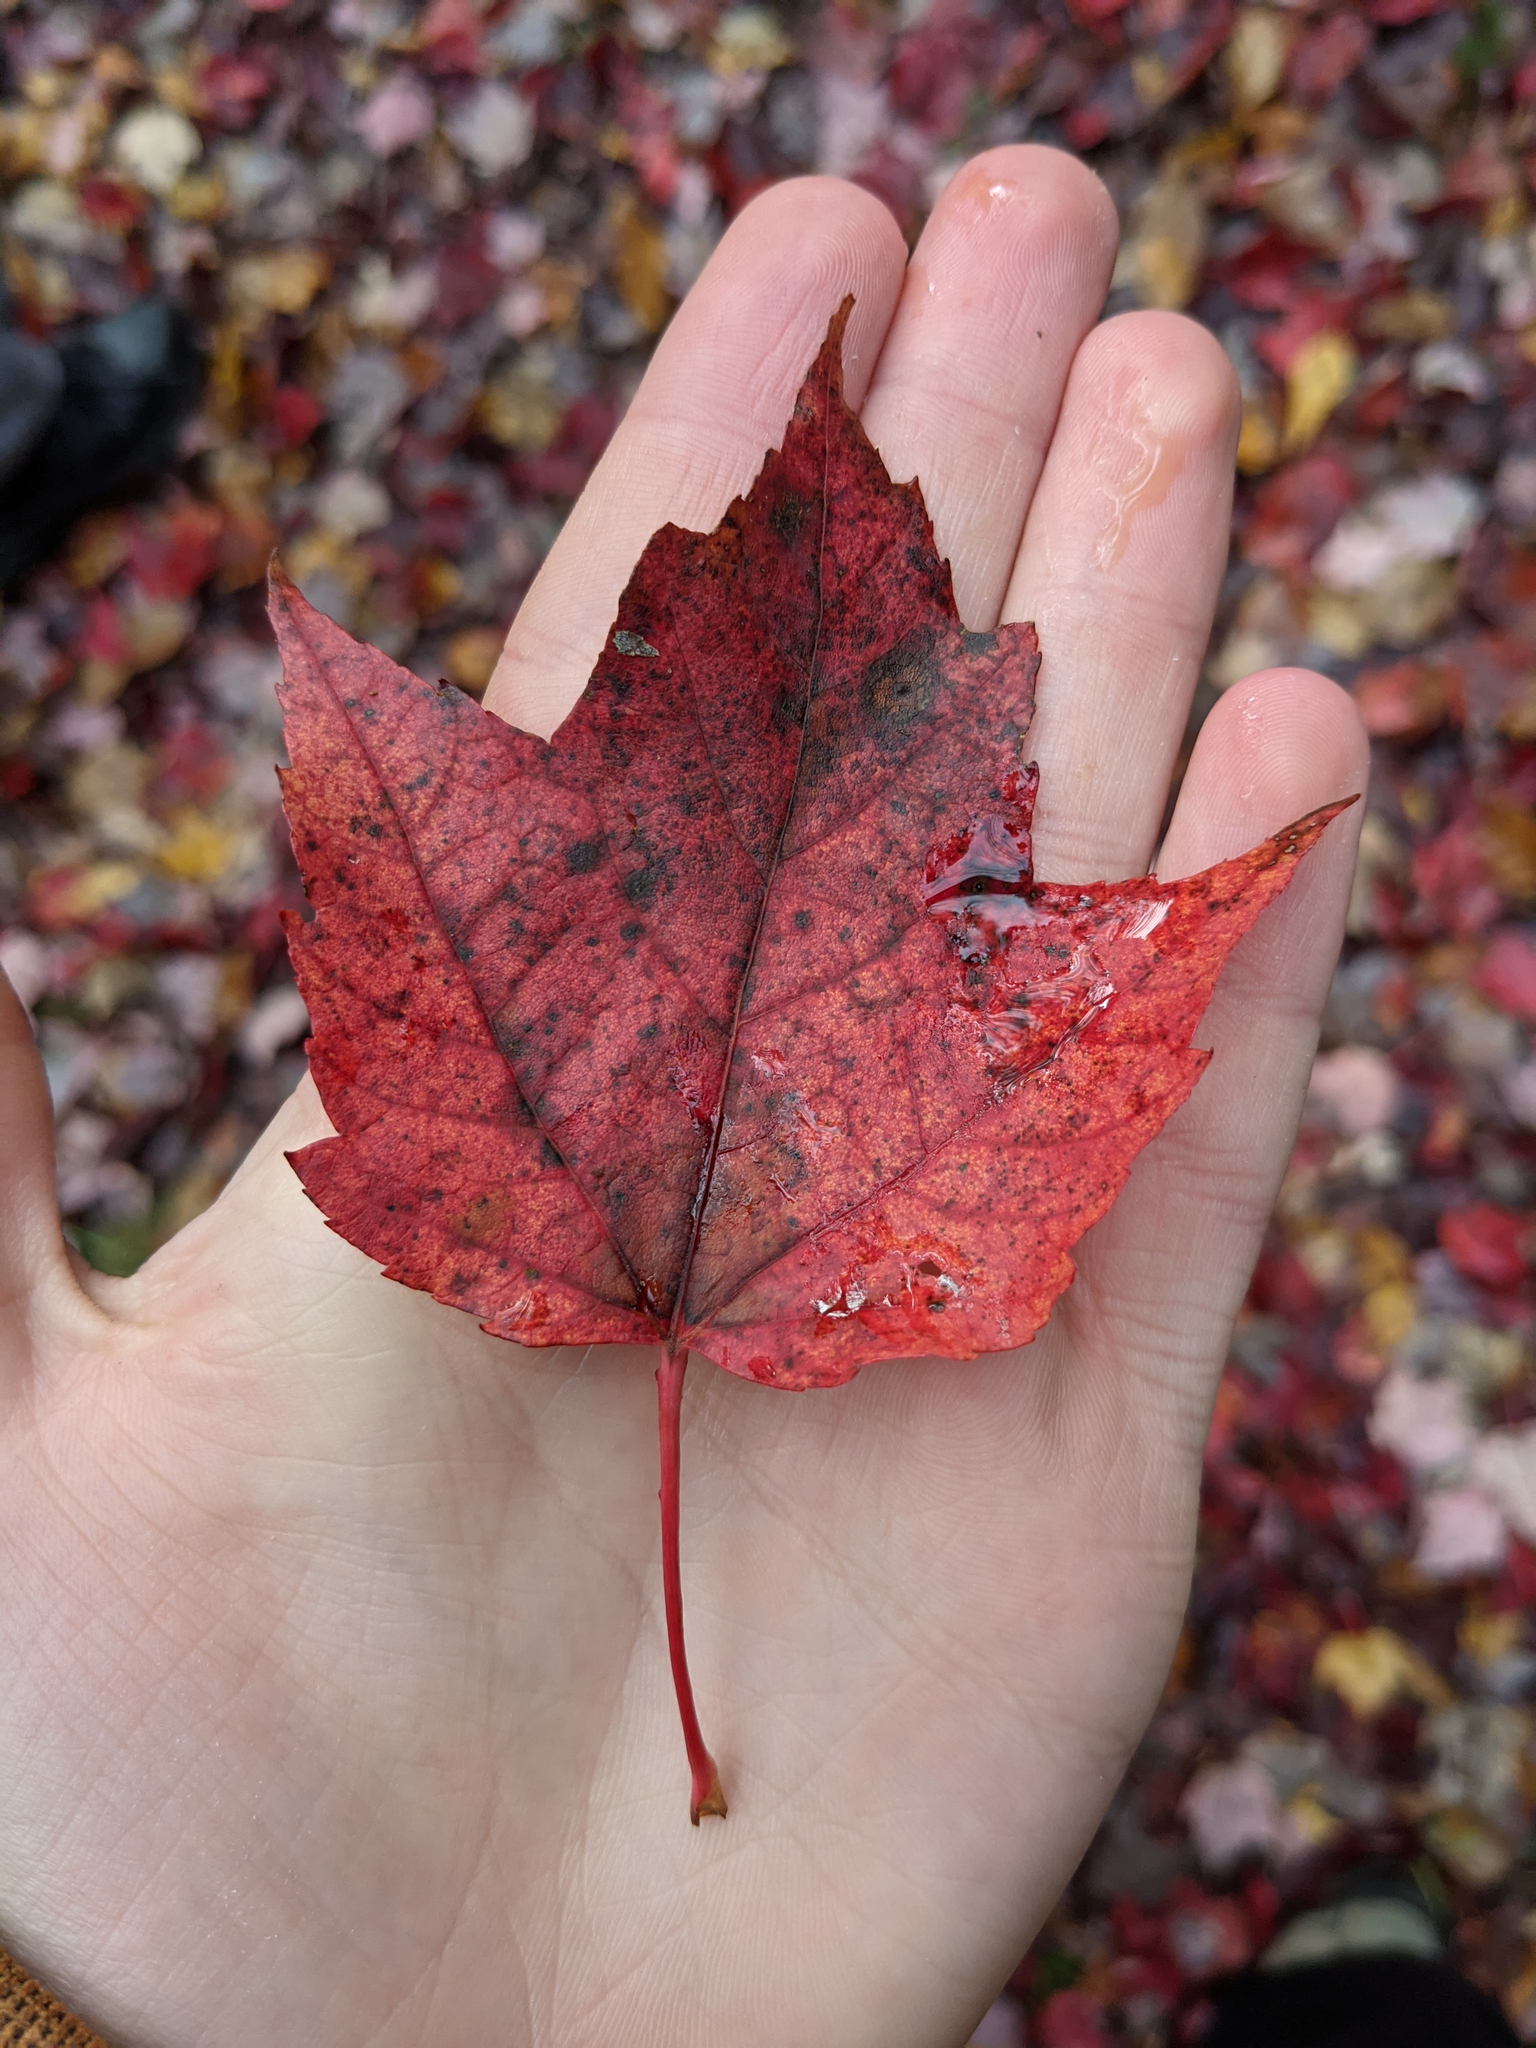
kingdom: Plantae
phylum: Tracheophyta
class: Magnoliopsida
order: Sapindales
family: Sapindaceae
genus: Acer
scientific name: Acer rubrum
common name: Red maple
